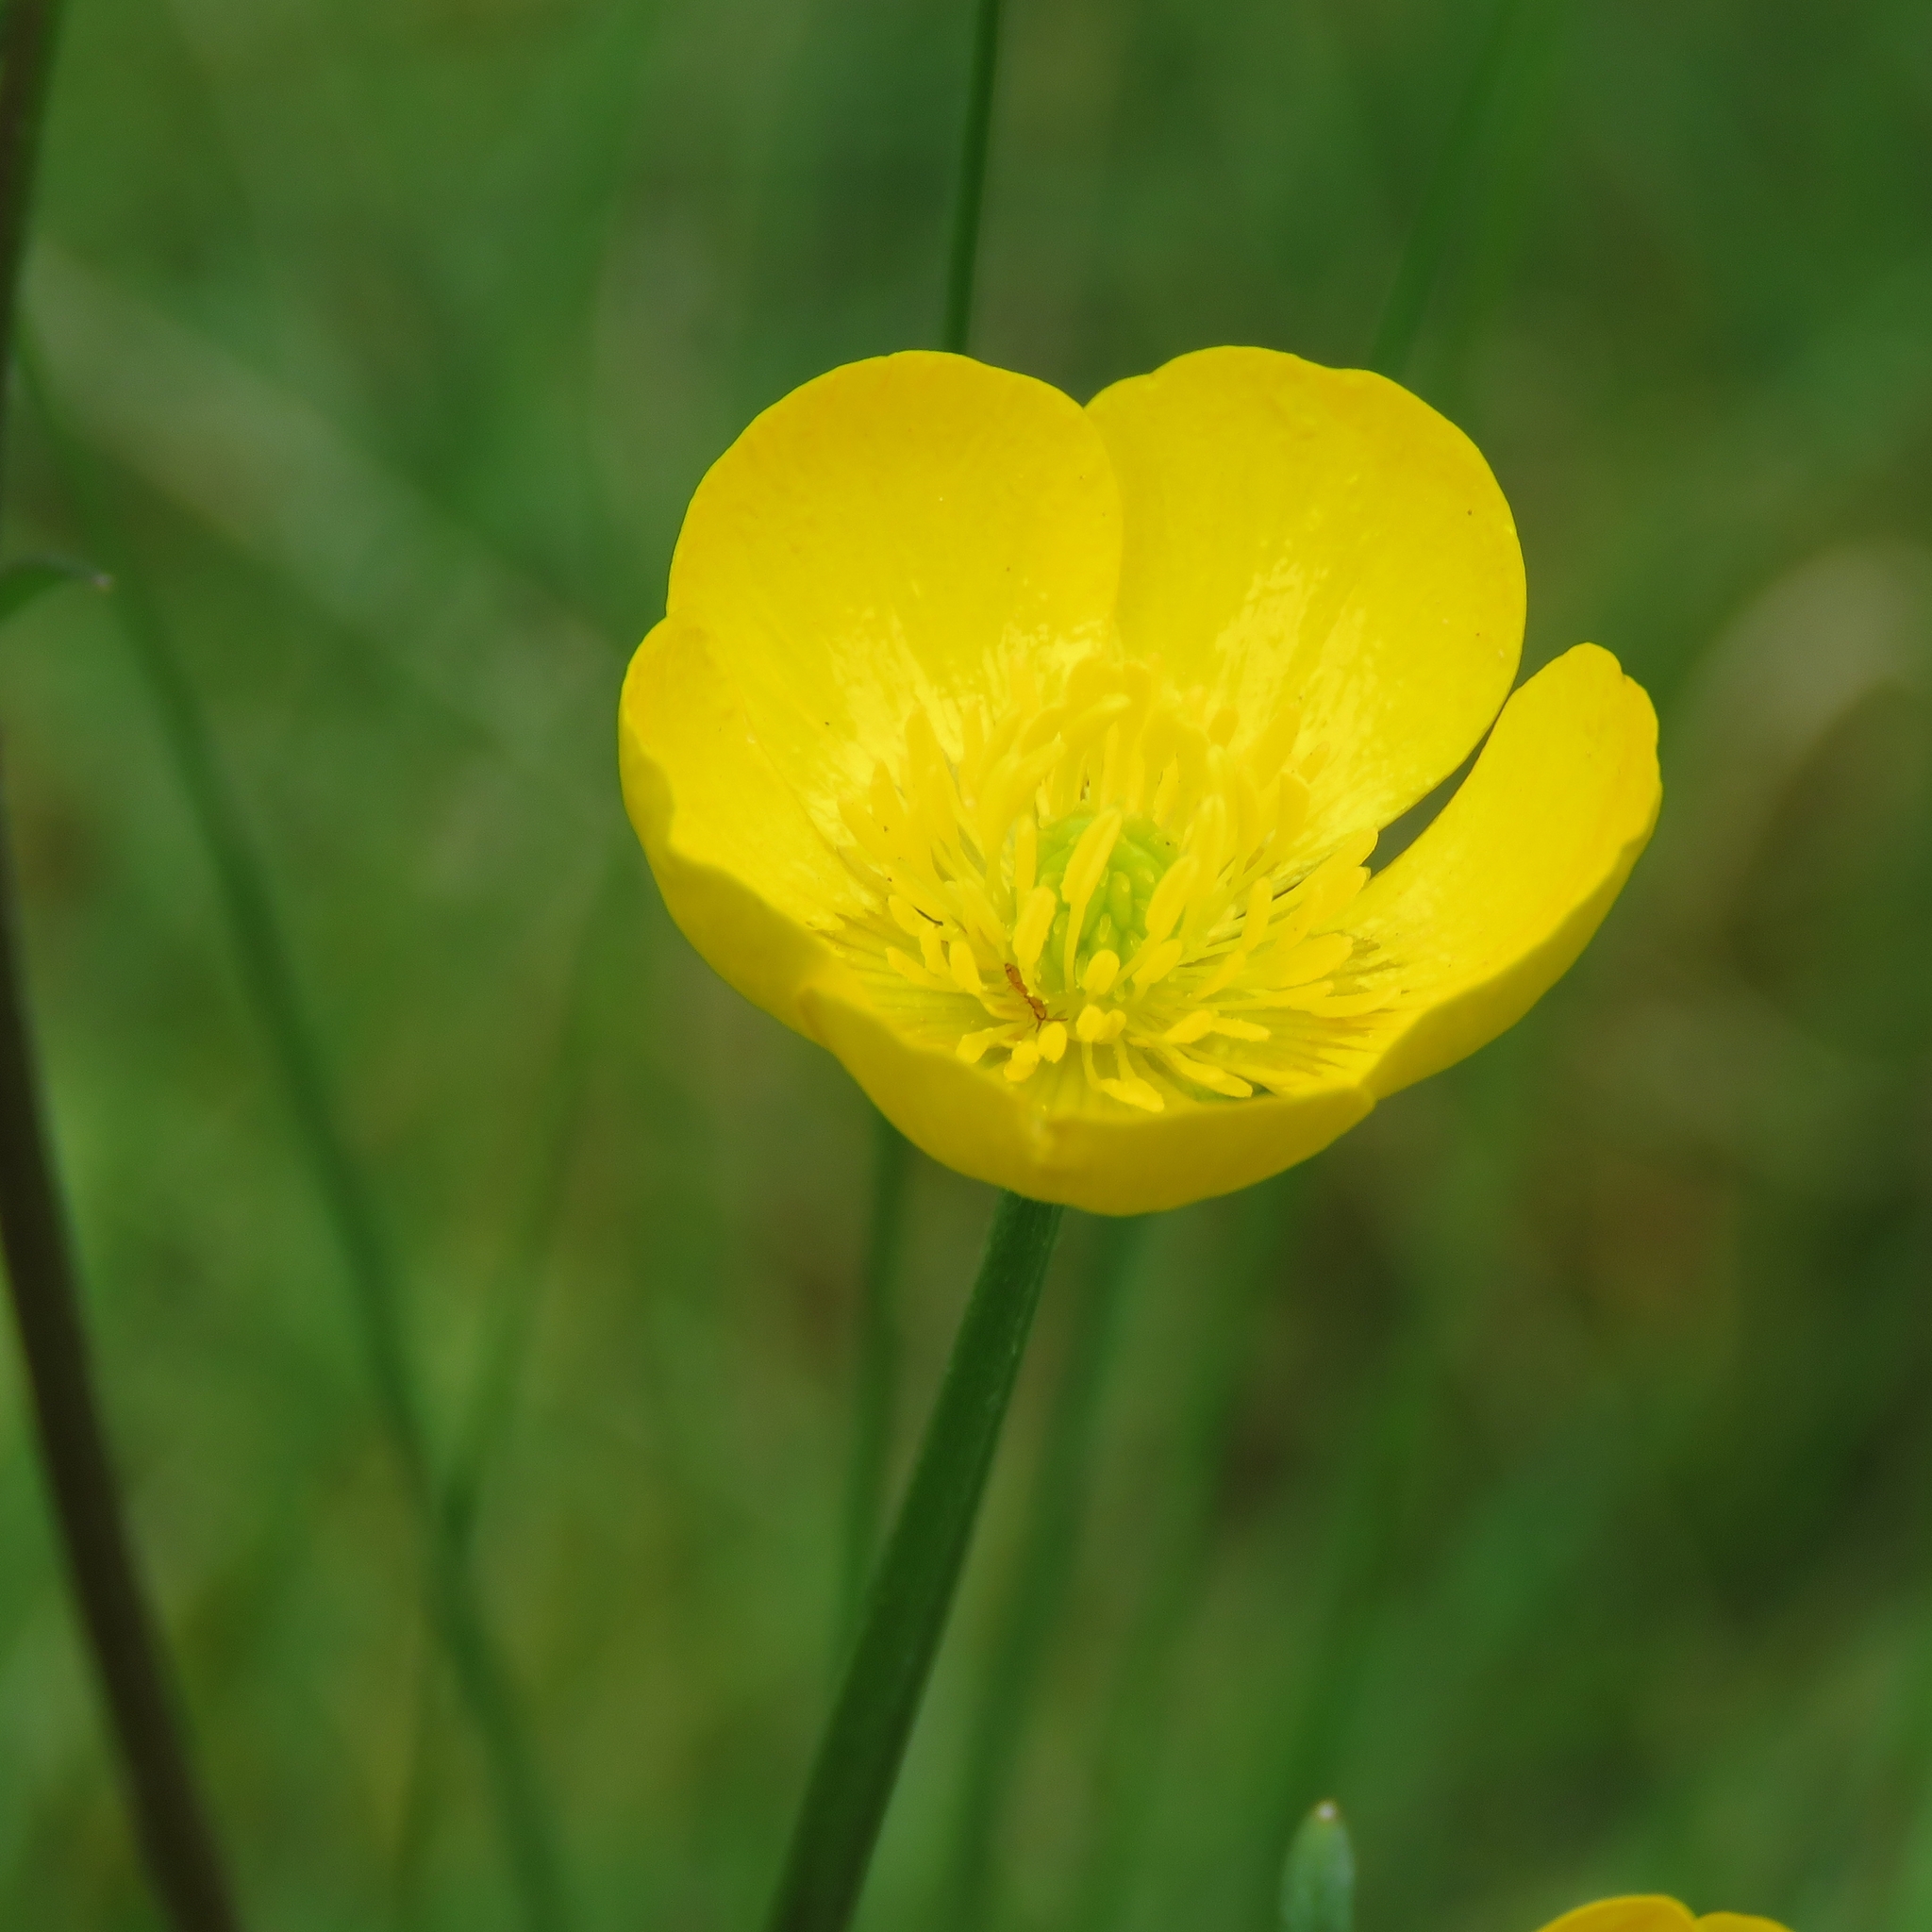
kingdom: Plantae
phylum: Tracheophyta
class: Magnoliopsida
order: Ranunculales
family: Ranunculaceae
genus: Ranunculus
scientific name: Ranunculus bulbosus
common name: Bulbous buttercup
